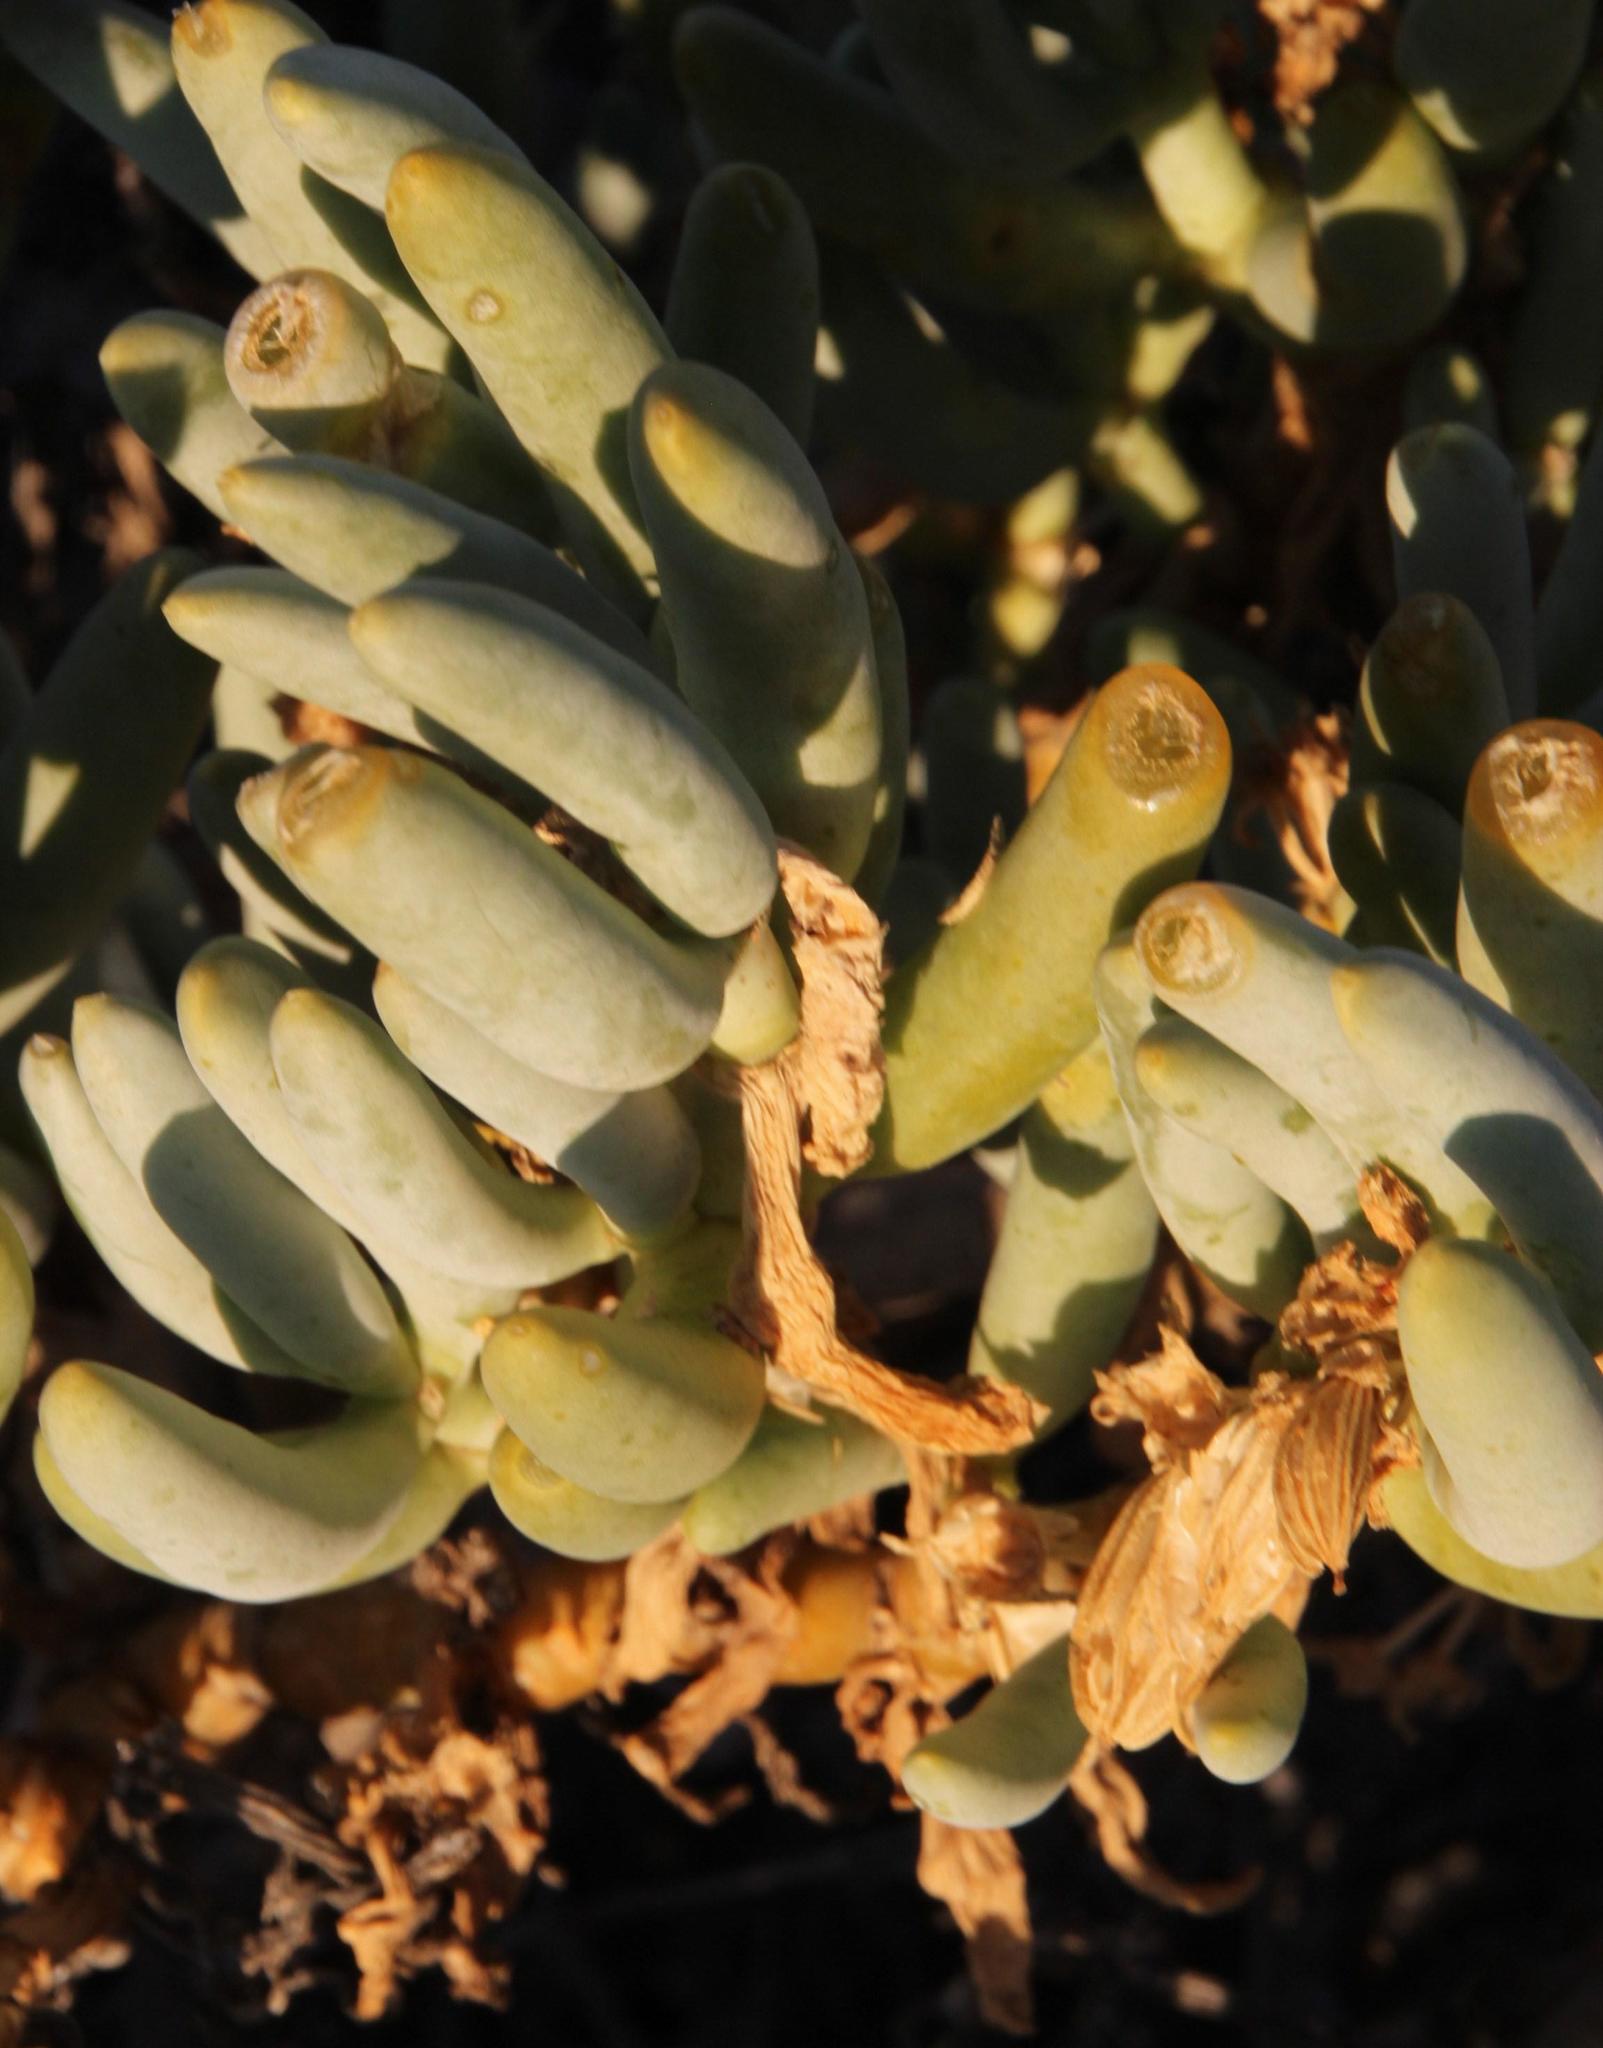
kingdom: Plantae
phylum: Tracheophyta
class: Magnoliopsida
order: Zygophyllales
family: Zygophyllaceae
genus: Augea
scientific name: Augea capensis
